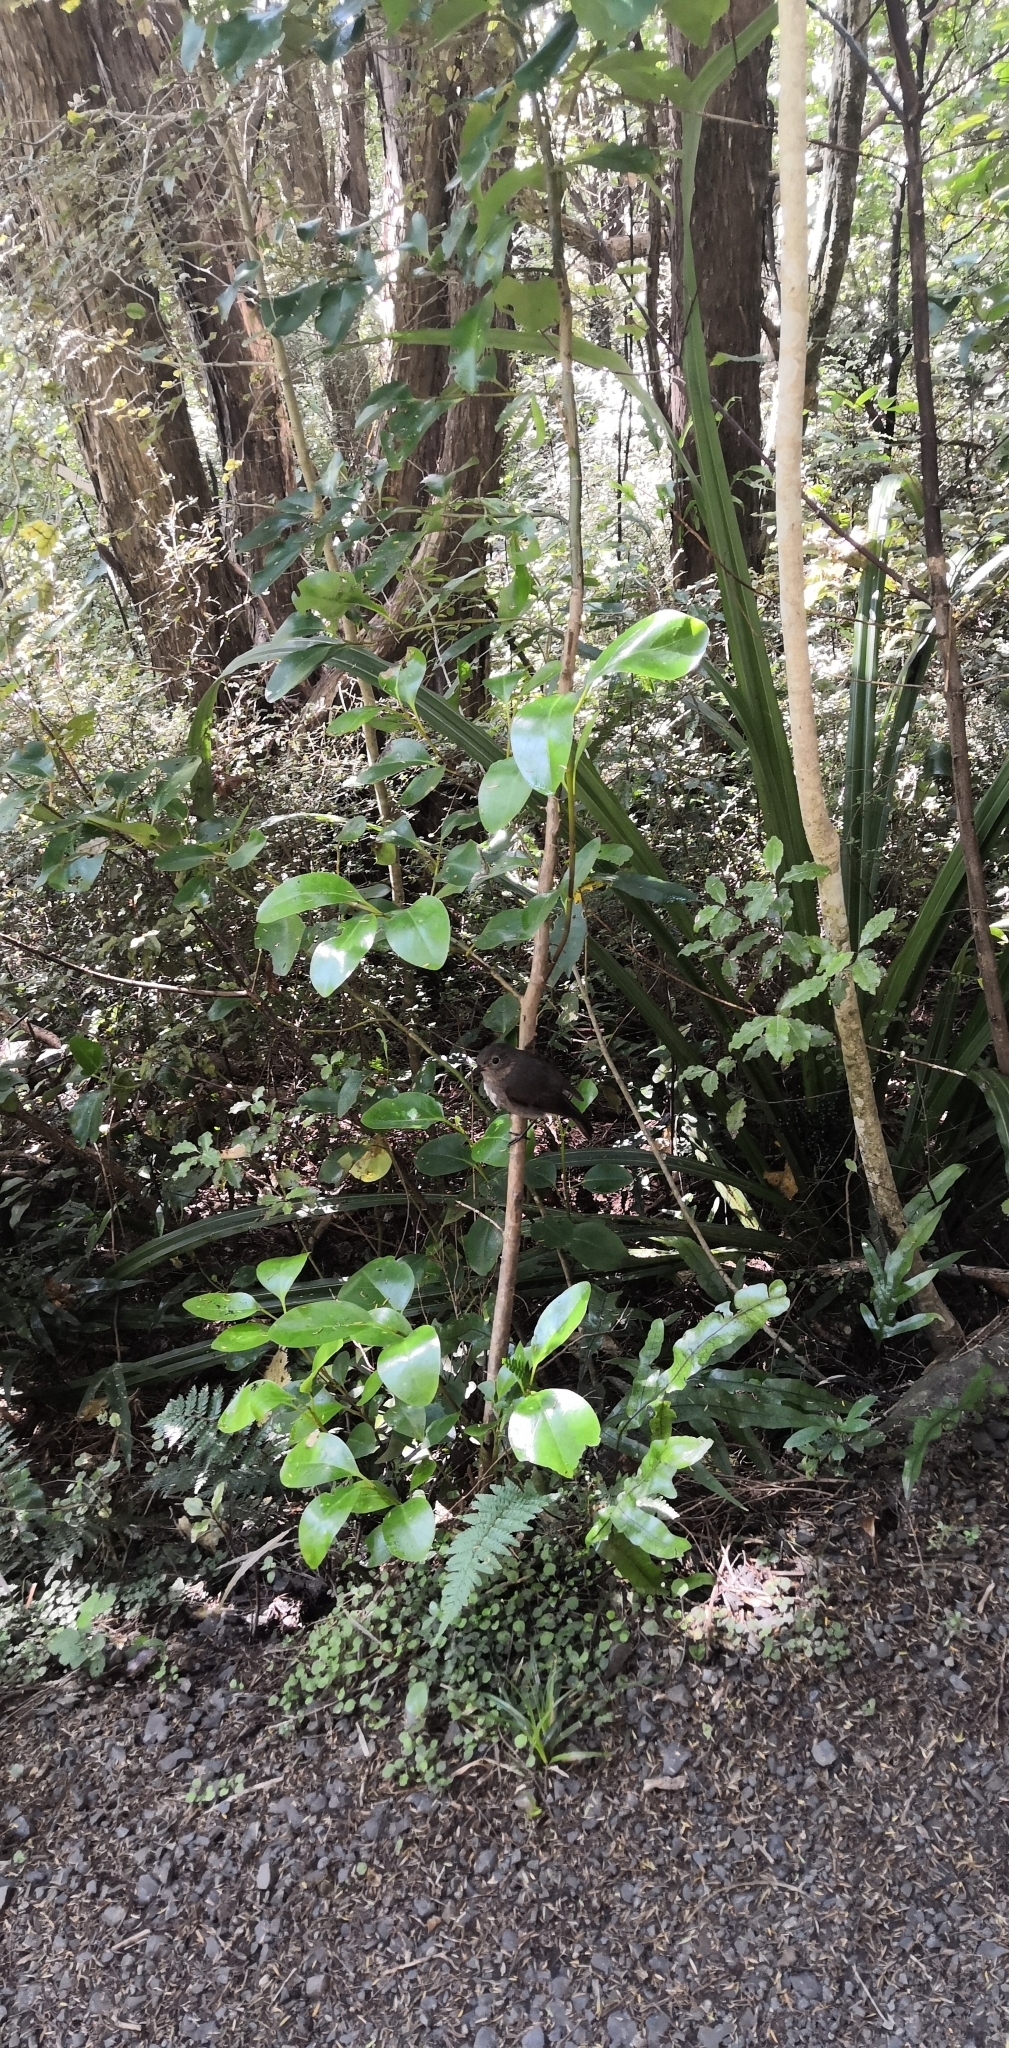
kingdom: Animalia
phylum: Chordata
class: Aves
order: Passeriformes
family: Petroicidae
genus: Petroica
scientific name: Petroica australis
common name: New zealand robin
